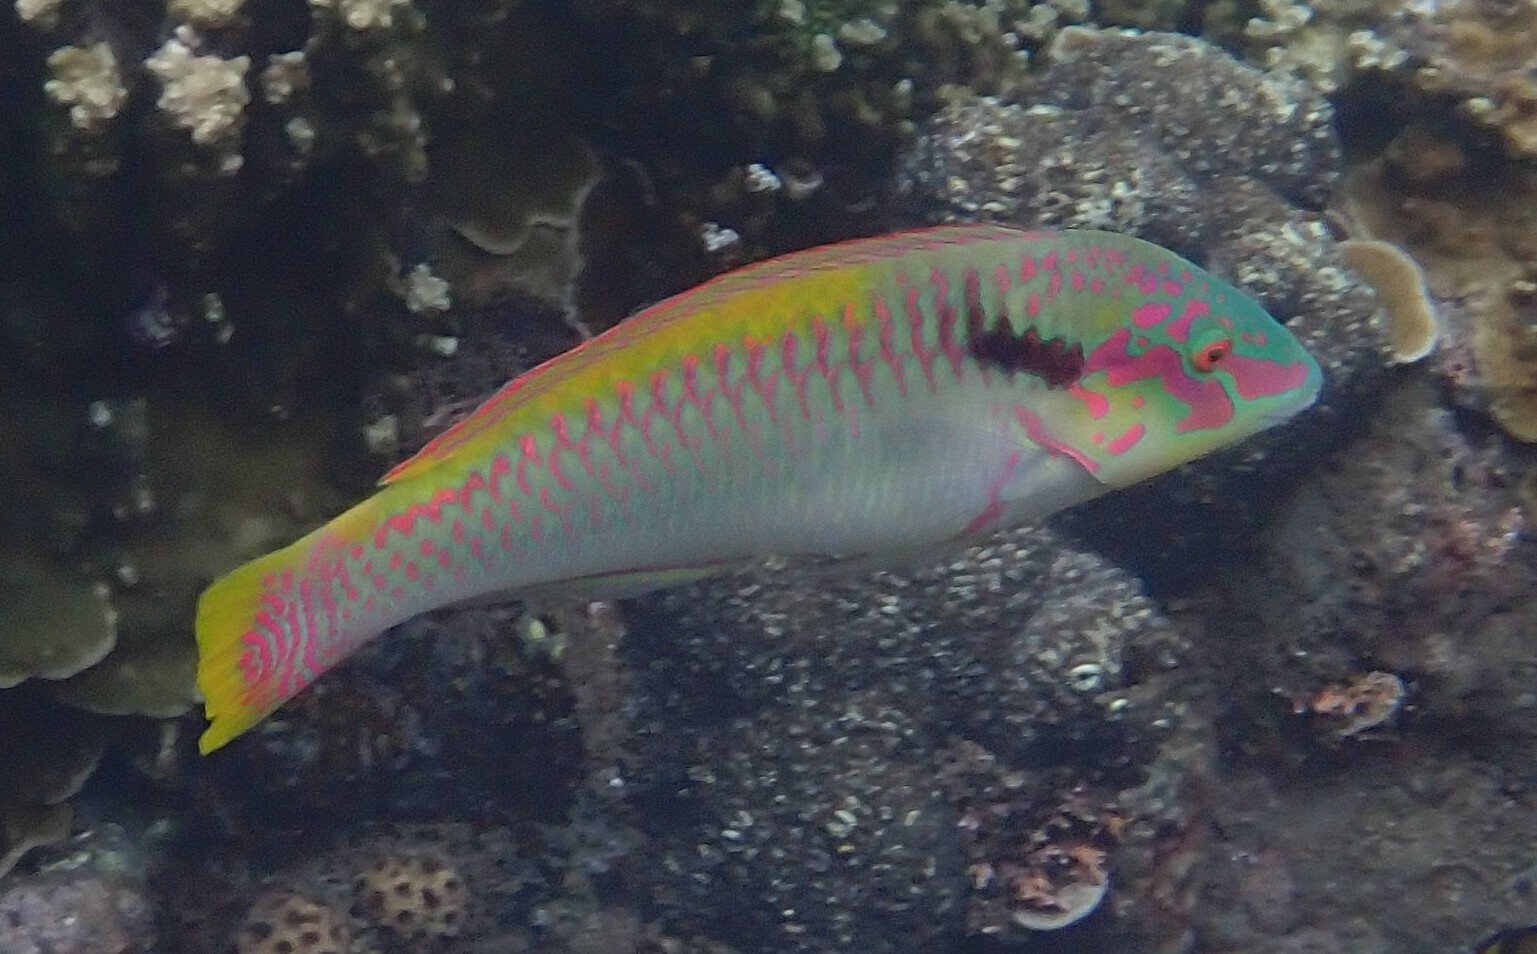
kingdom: Animalia
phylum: Chordata
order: Perciformes
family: Labridae
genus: Halichoeres
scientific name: Halichoeres scapularis
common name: Brownbanded wrasse
